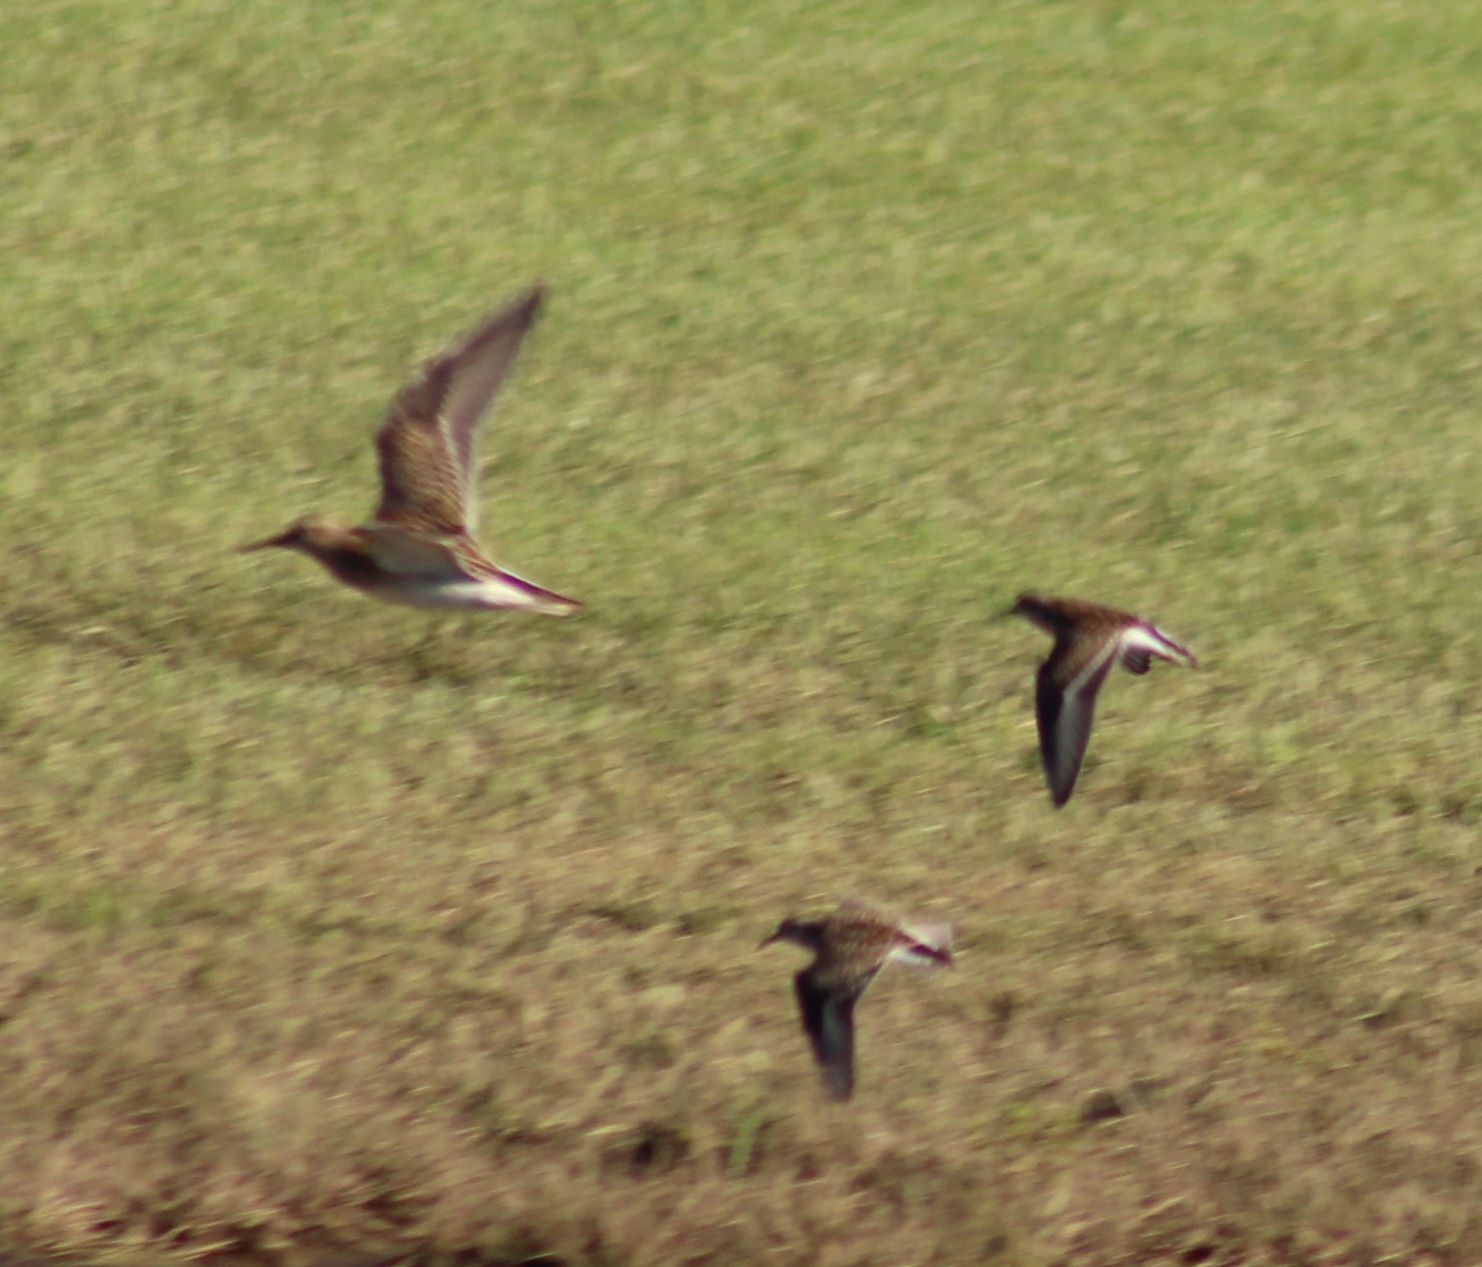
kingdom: Animalia
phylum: Chordata
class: Aves
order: Charadriiformes
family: Scolopacidae
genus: Calidris
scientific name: Calidris melanotos
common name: Pectoral sandpiper
